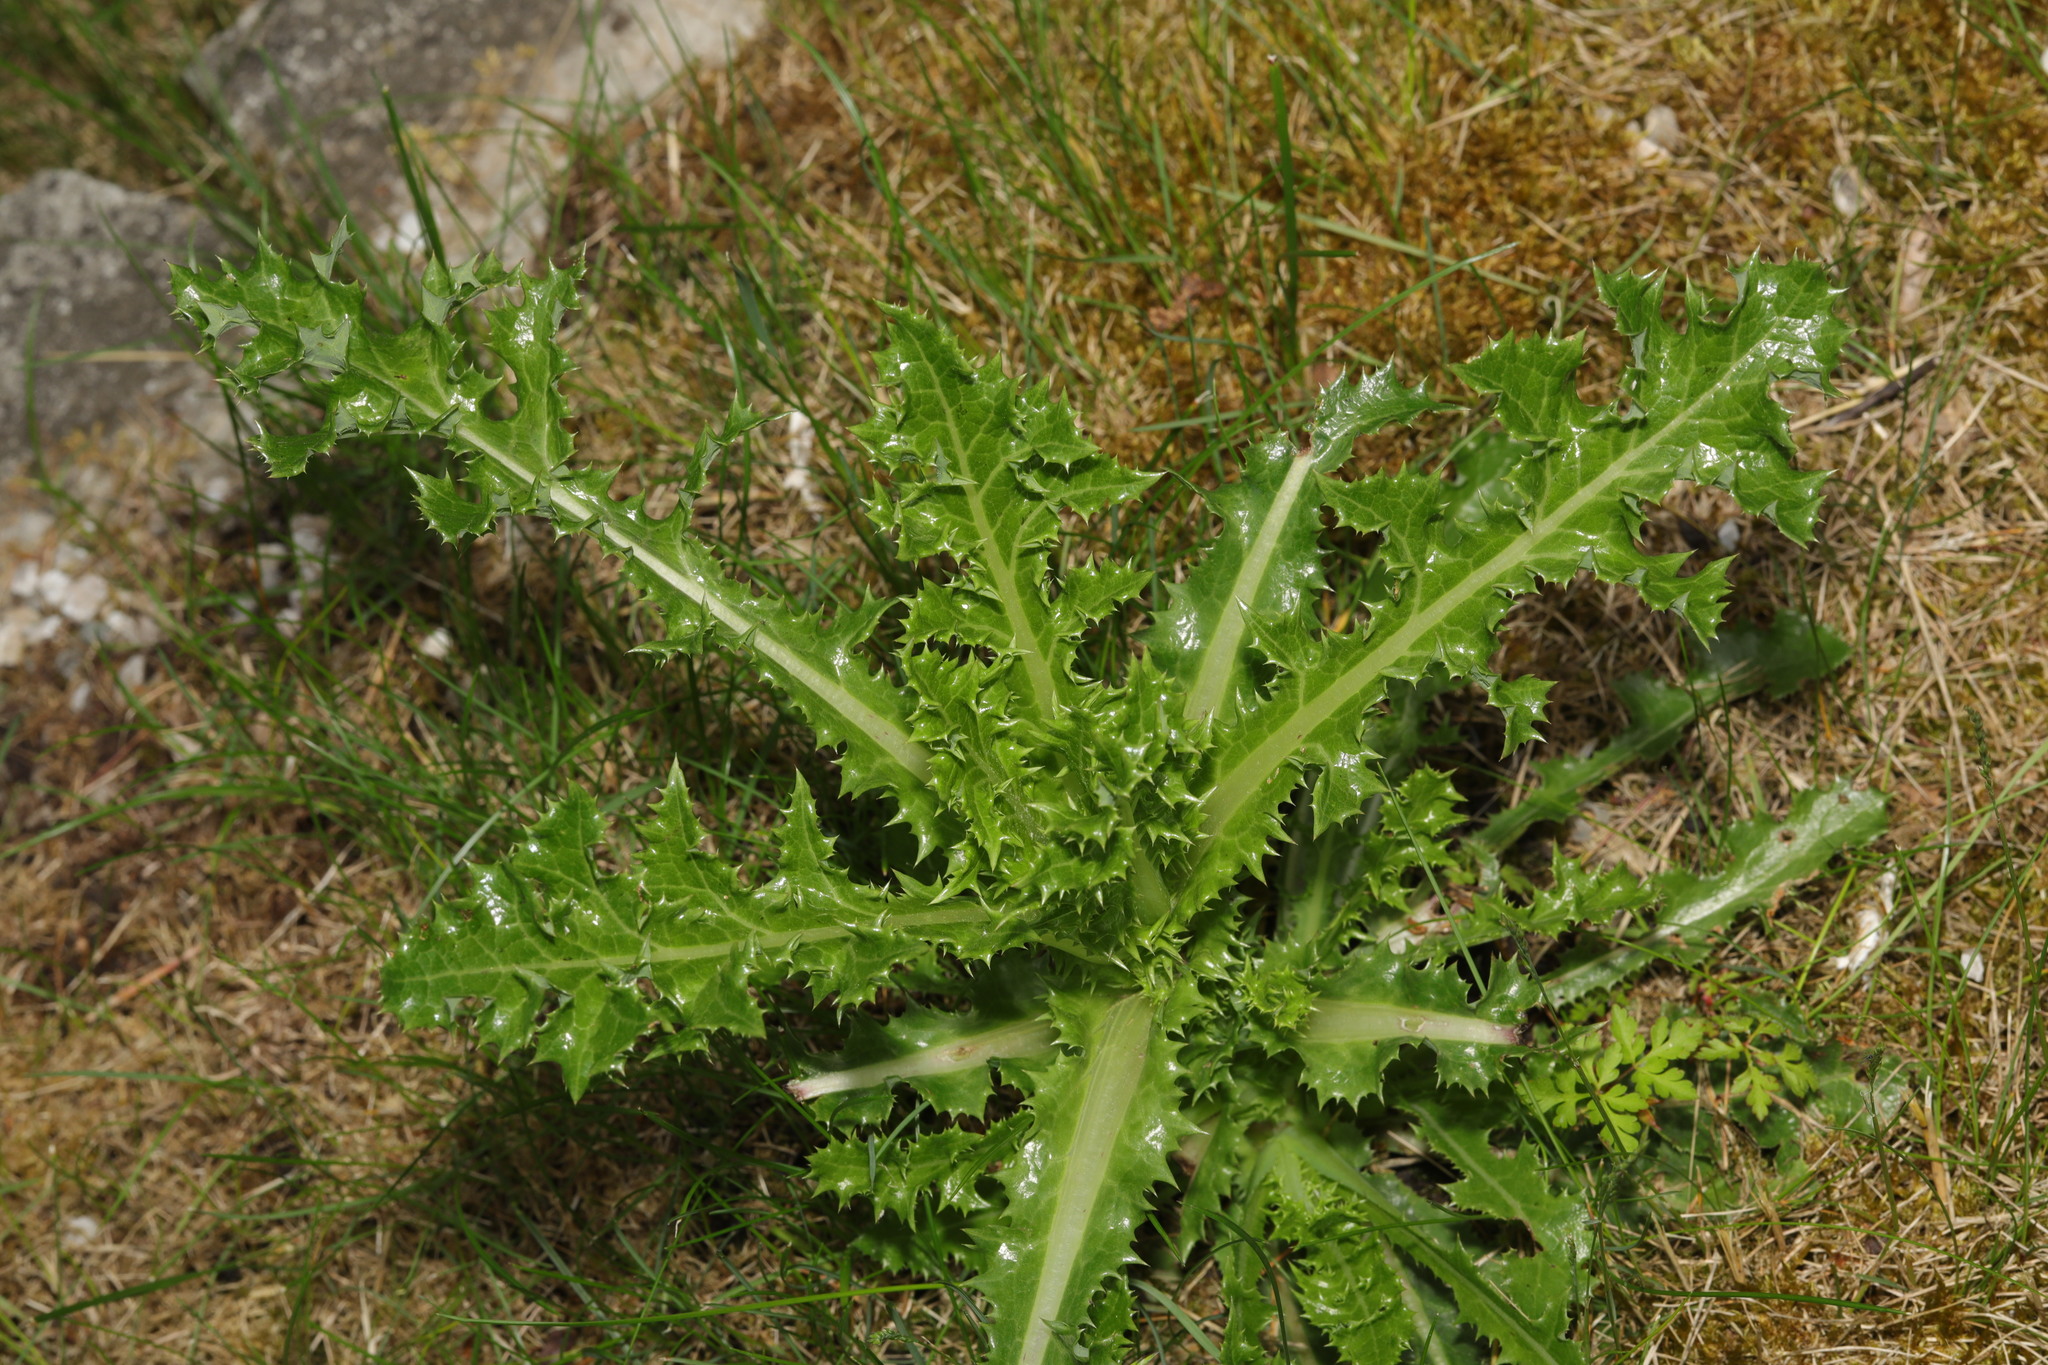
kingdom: Plantae
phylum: Tracheophyta
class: Magnoliopsida
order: Asterales
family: Asteraceae
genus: Cirsium
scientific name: Cirsium arvense
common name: Creeping thistle
